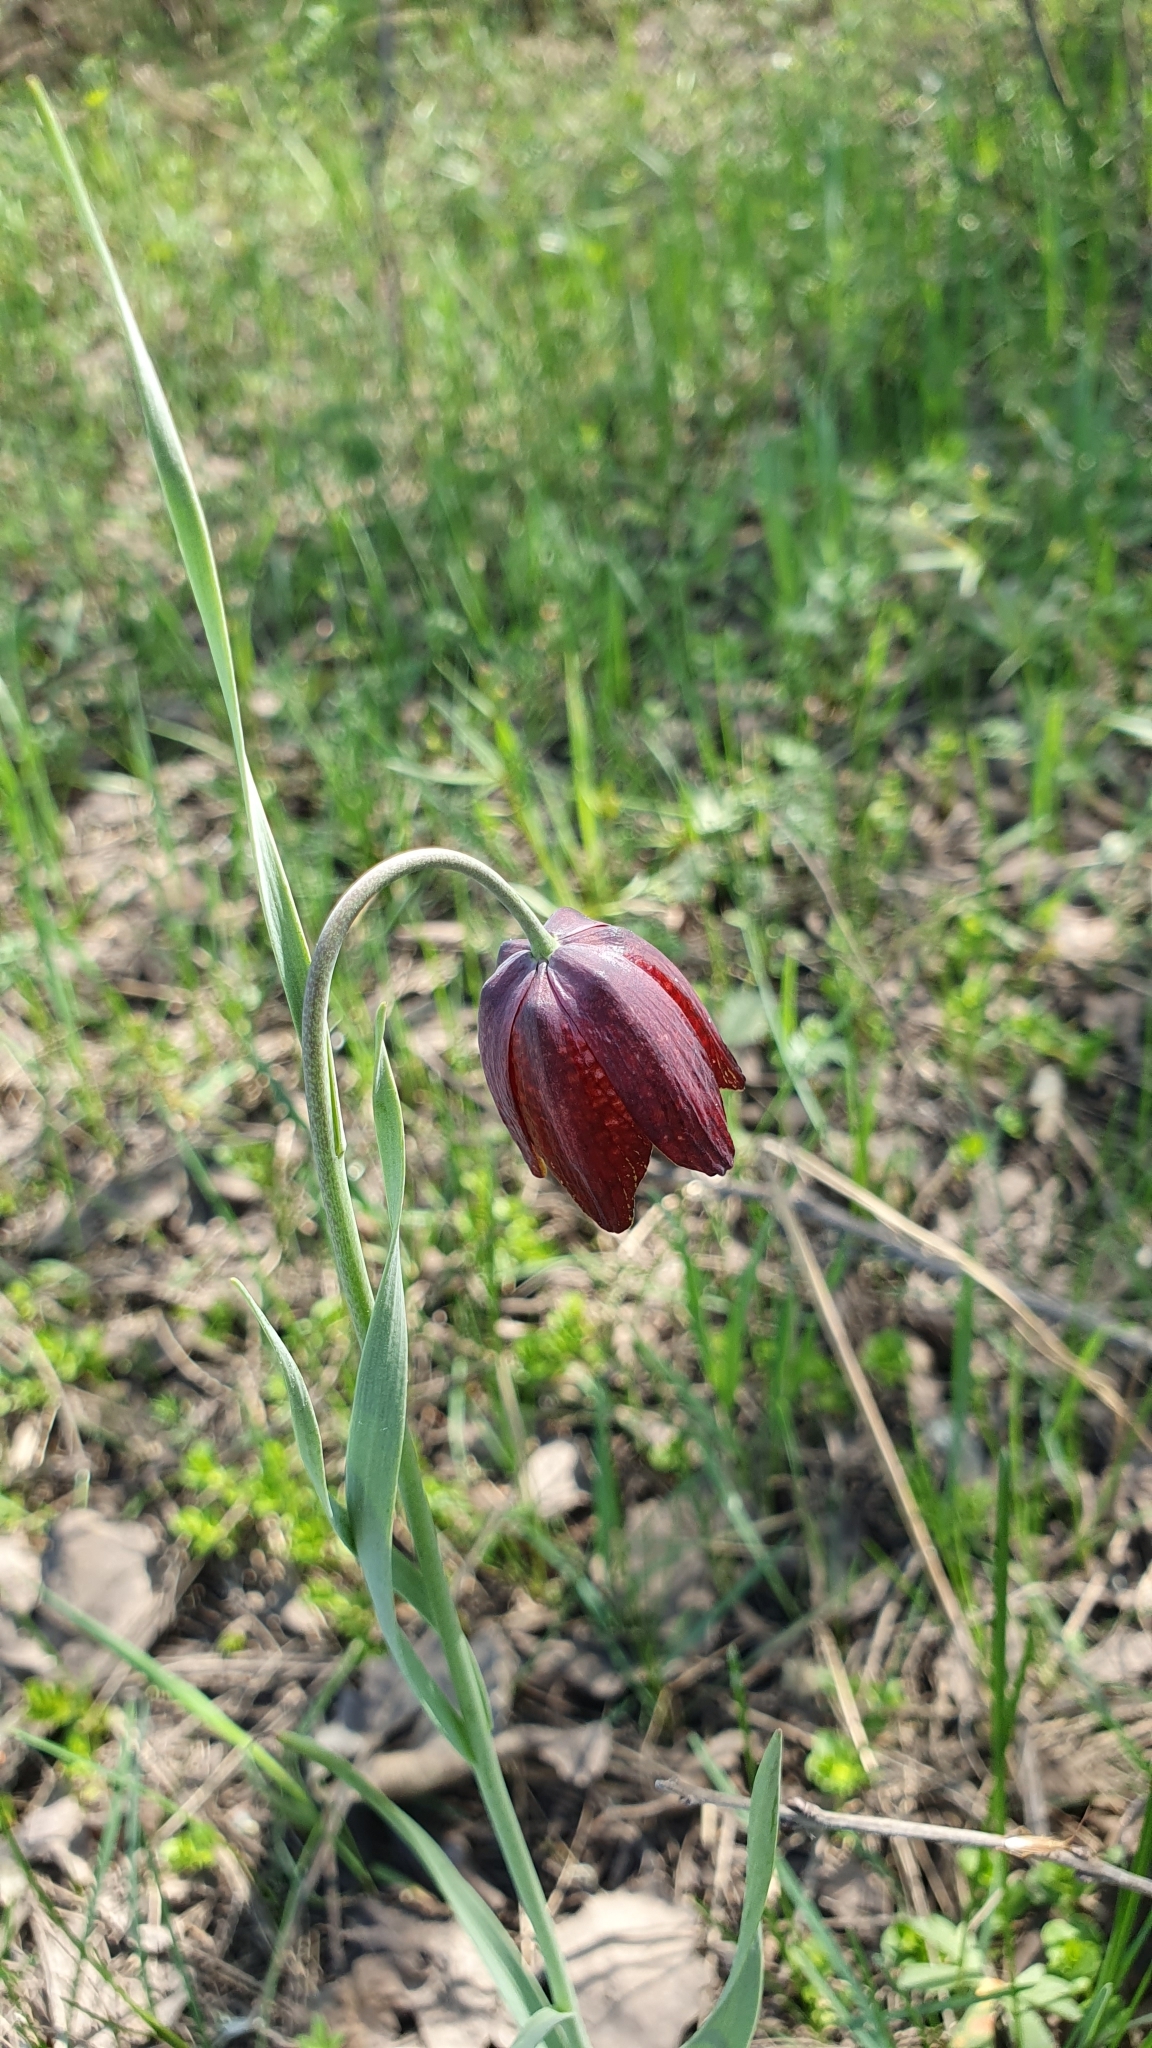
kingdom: Plantae
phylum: Tracheophyta
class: Liliopsida
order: Liliales
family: Liliaceae
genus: Fritillaria
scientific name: Fritillaria meleagroides
